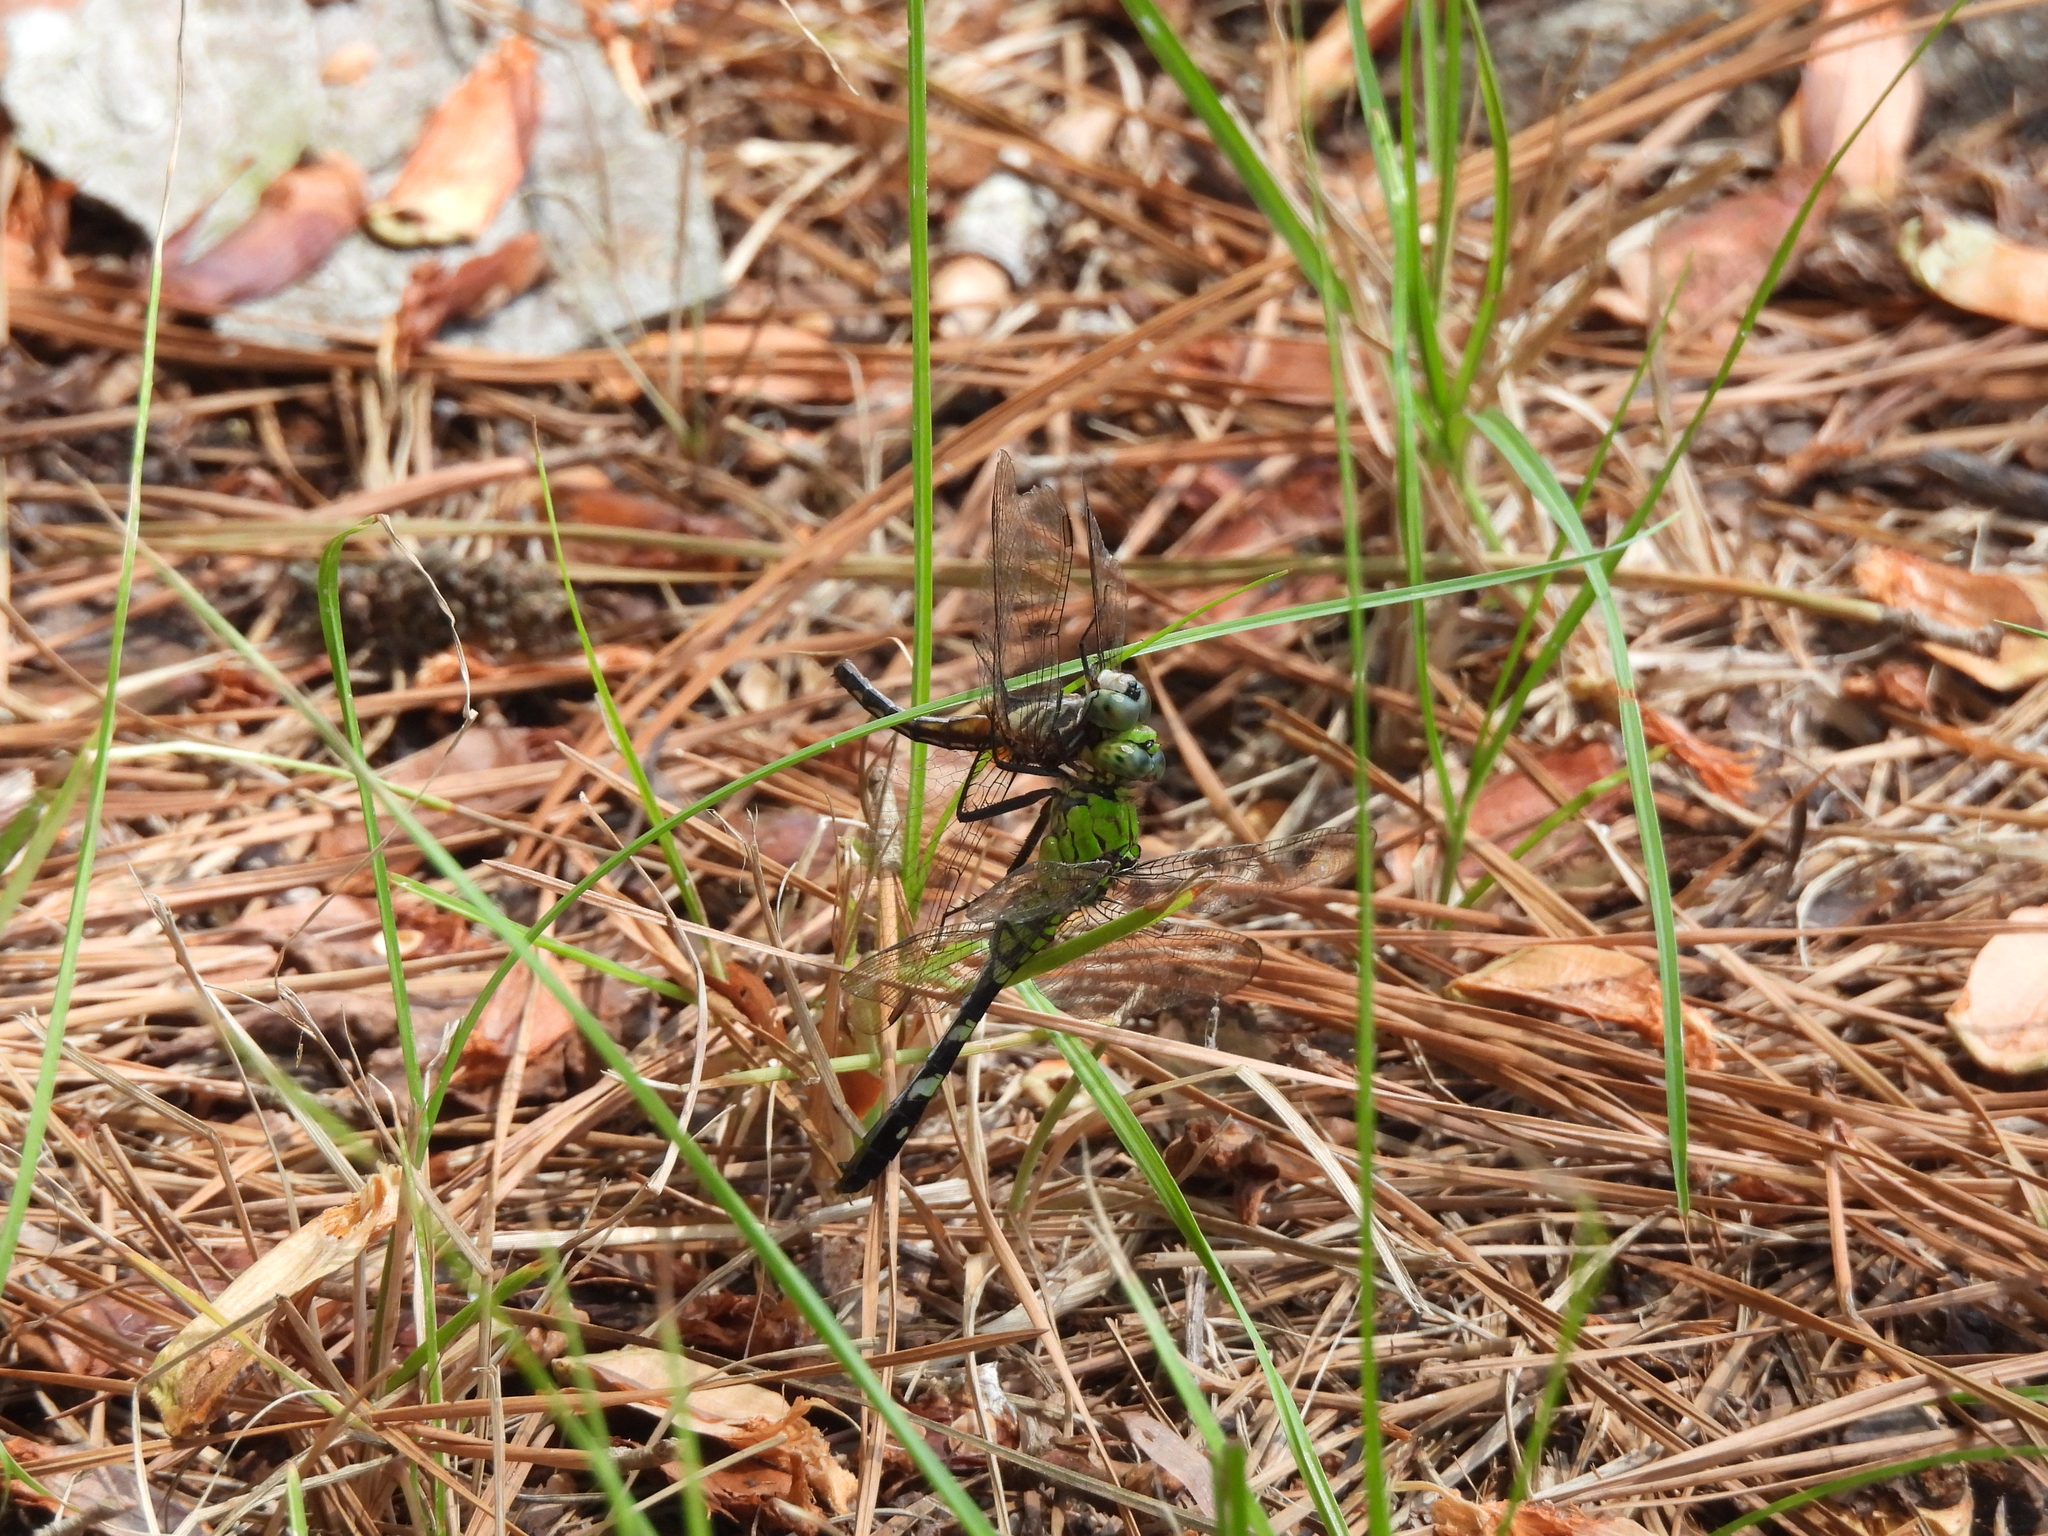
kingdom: Animalia
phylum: Arthropoda
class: Insecta
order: Odonata
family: Libellulidae
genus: Pachydiplax
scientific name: Pachydiplax longipennis
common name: Blue dasher
